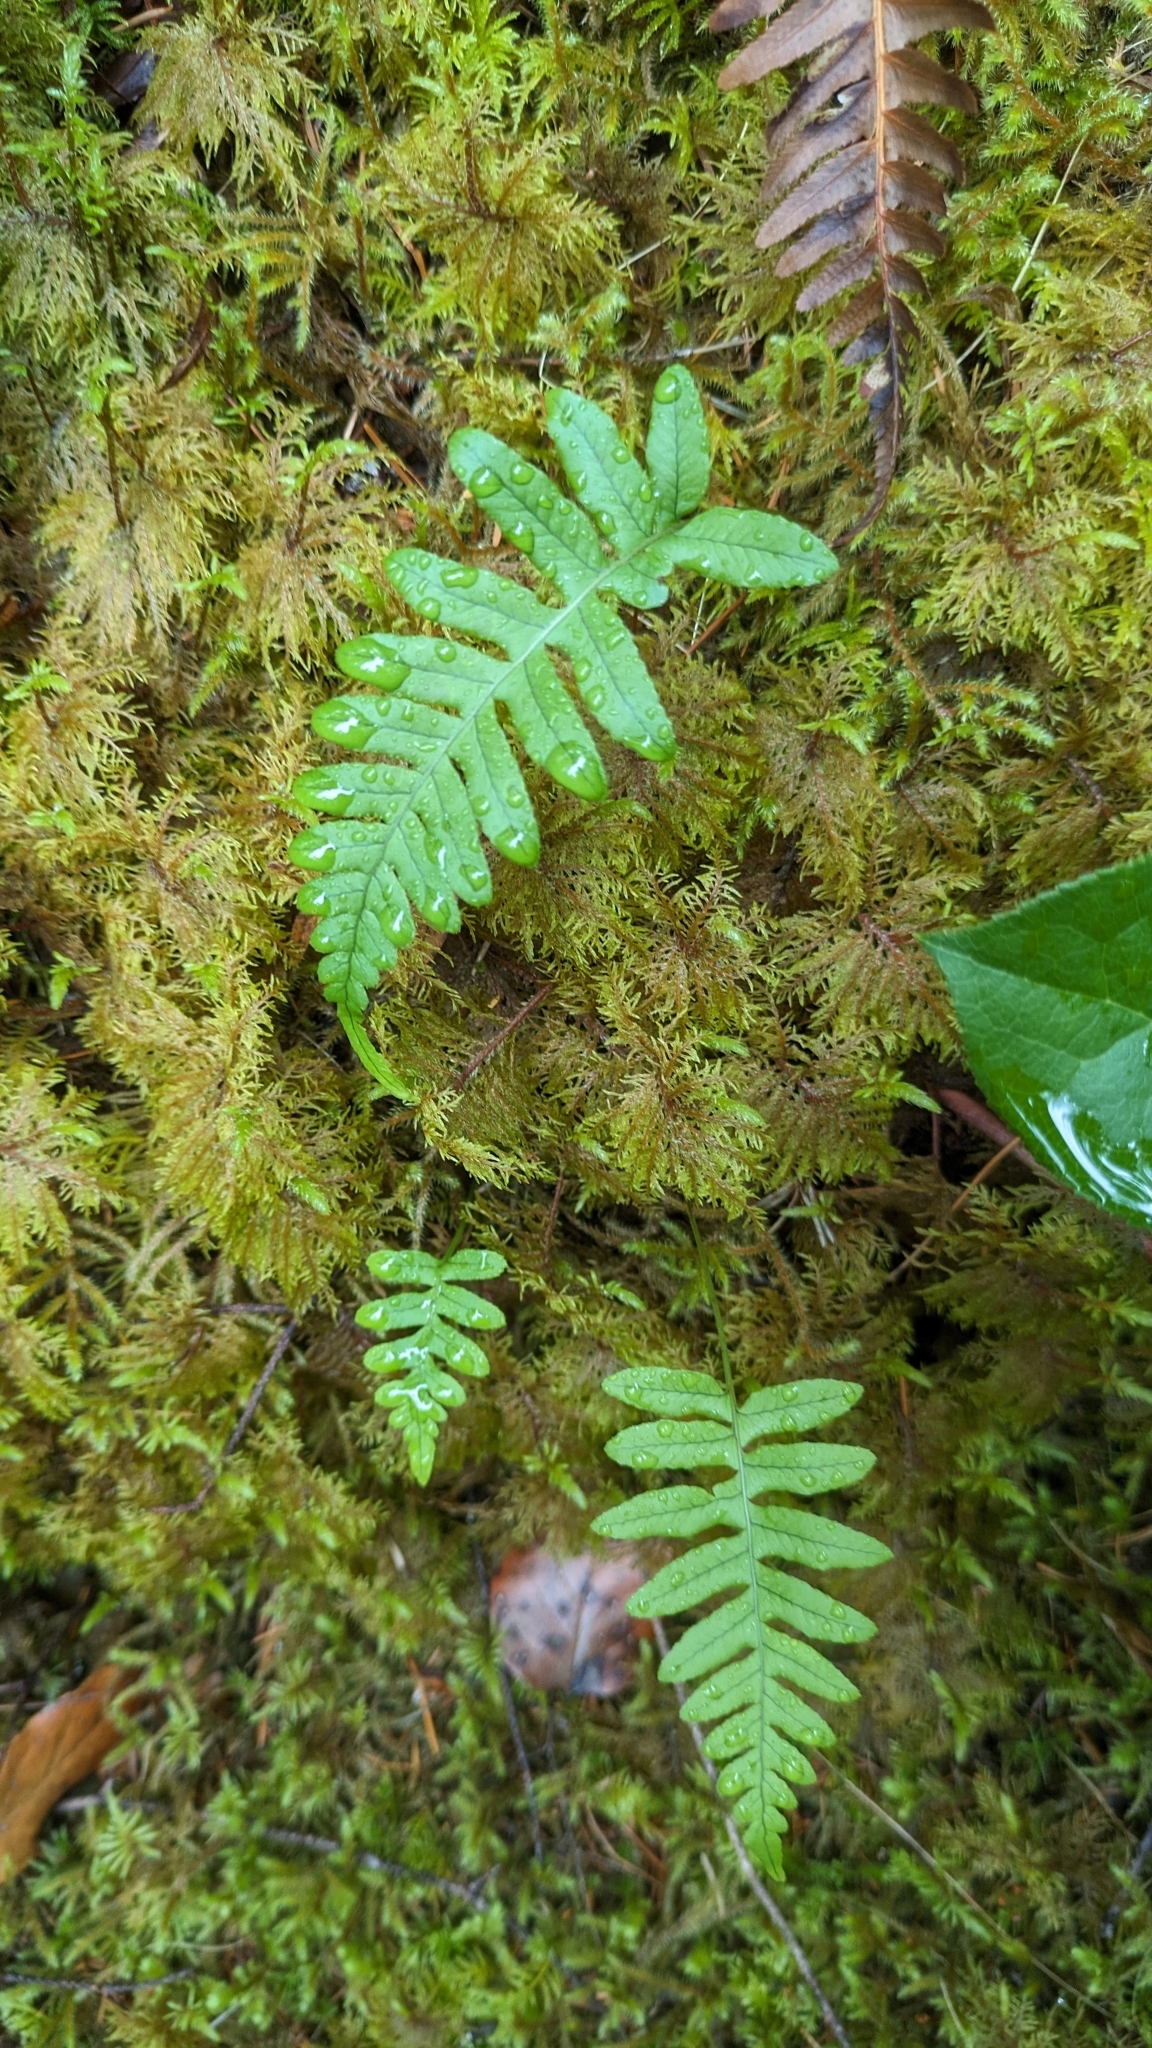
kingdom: Plantae
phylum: Tracheophyta
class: Polypodiopsida
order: Polypodiales
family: Polypodiaceae
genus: Polypodium
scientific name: Polypodium glycyrrhiza
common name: Licorice fern
